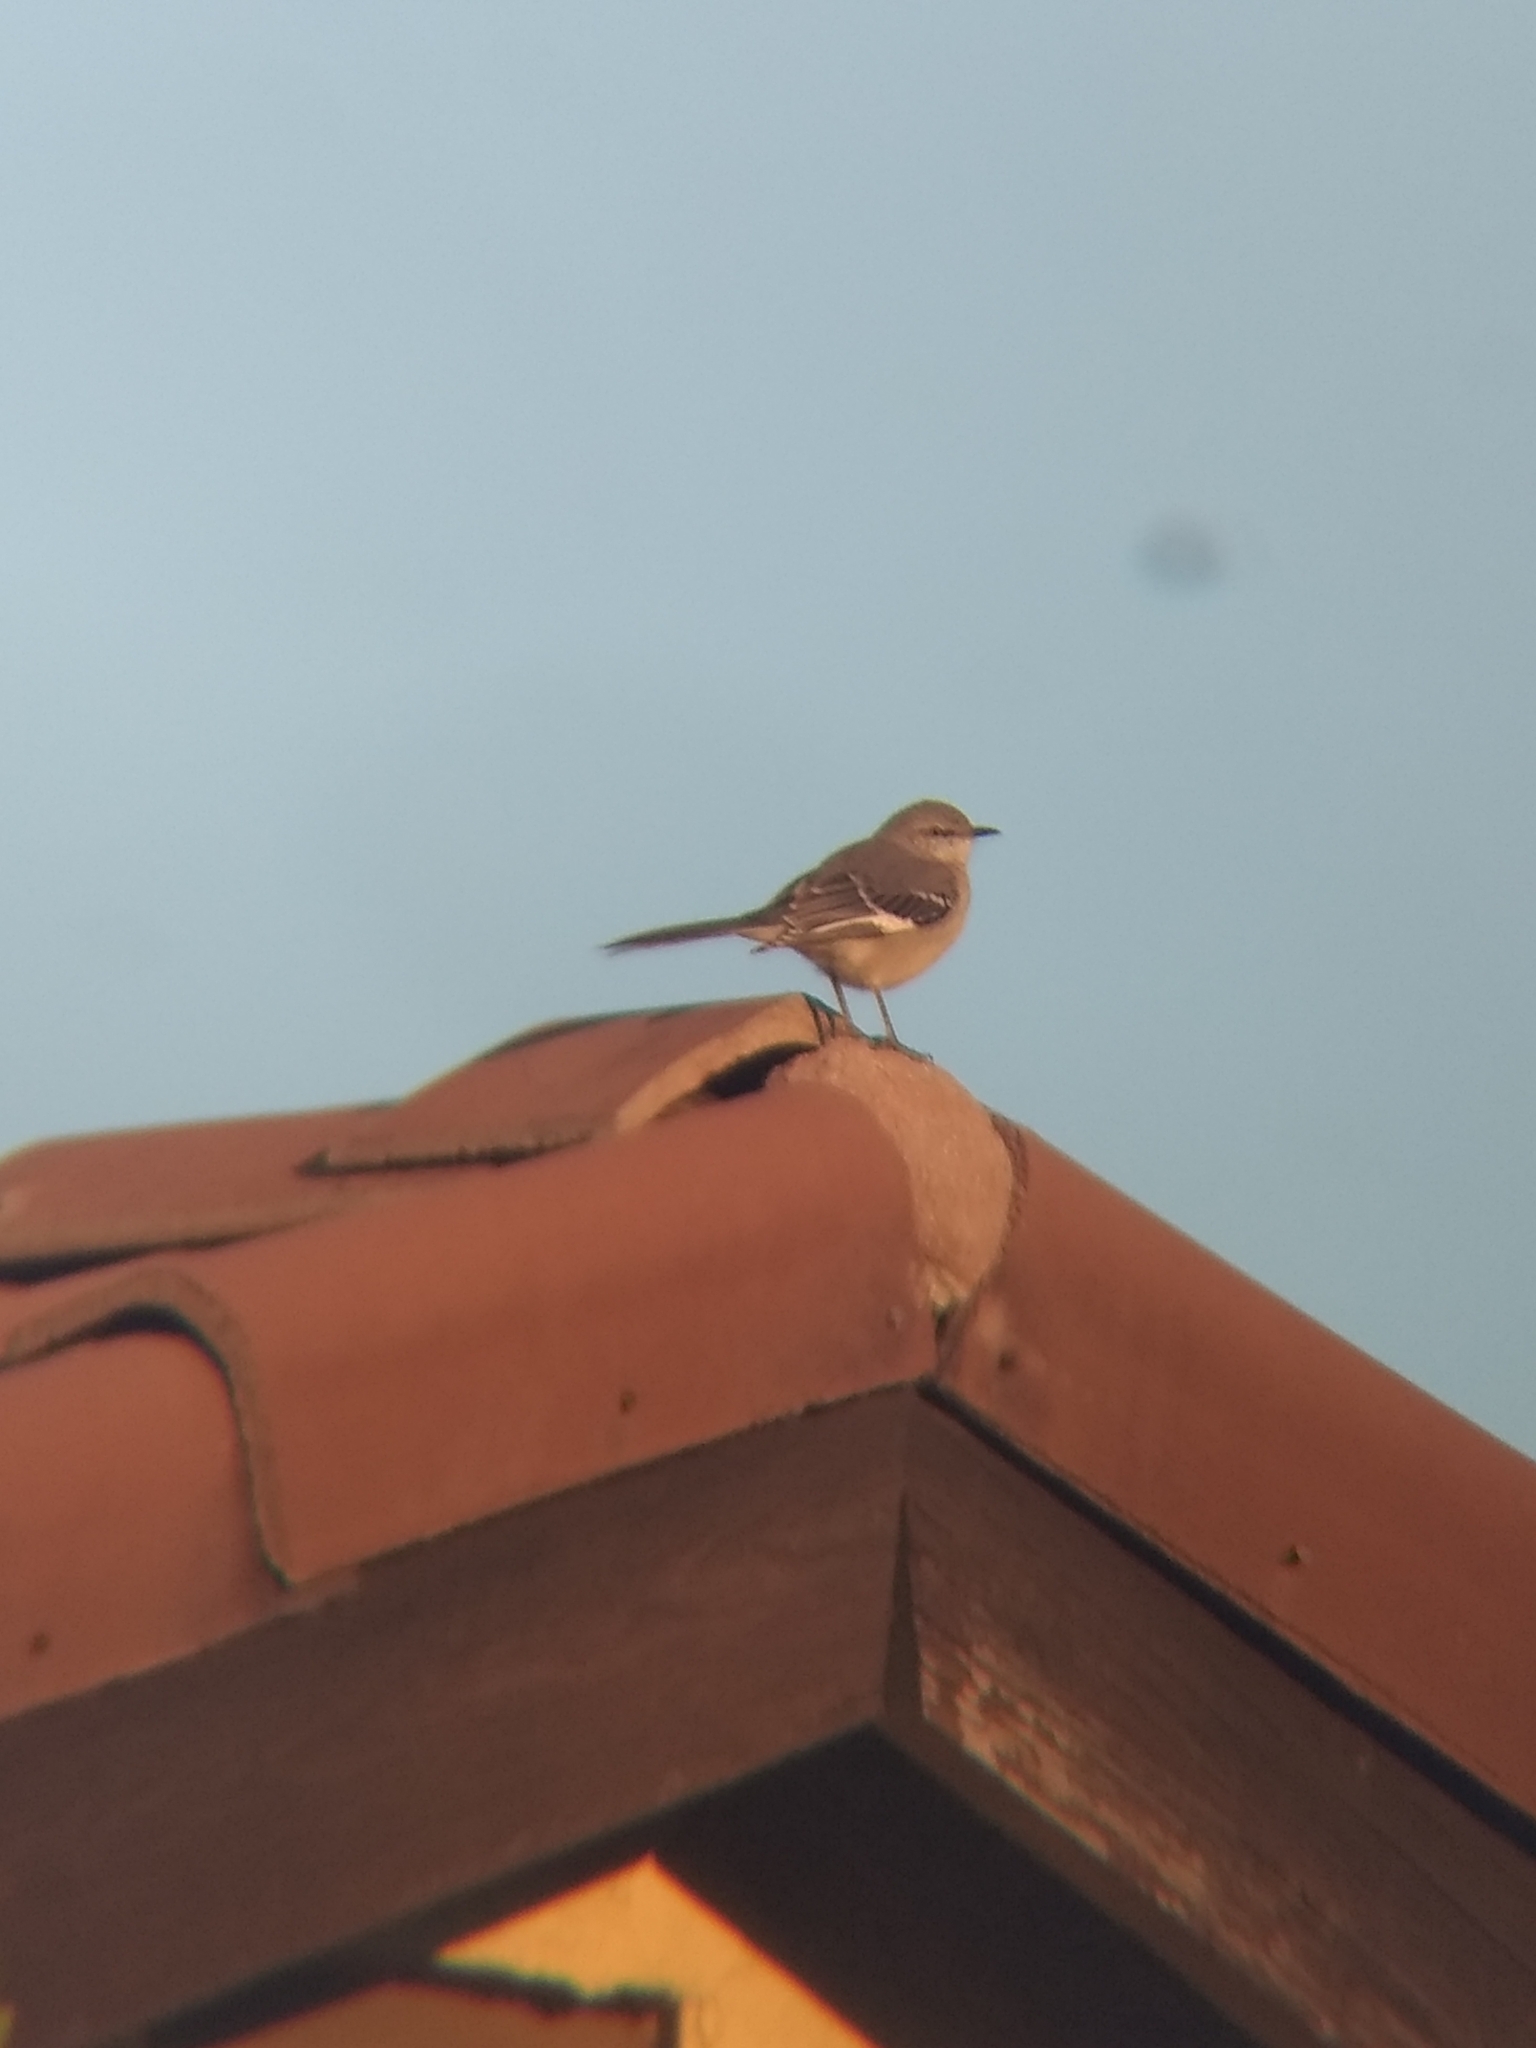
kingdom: Animalia
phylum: Chordata
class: Aves
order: Passeriformes
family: Mimidae
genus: Mimus
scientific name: Mimus polyglottos
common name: Northern mockingbird
